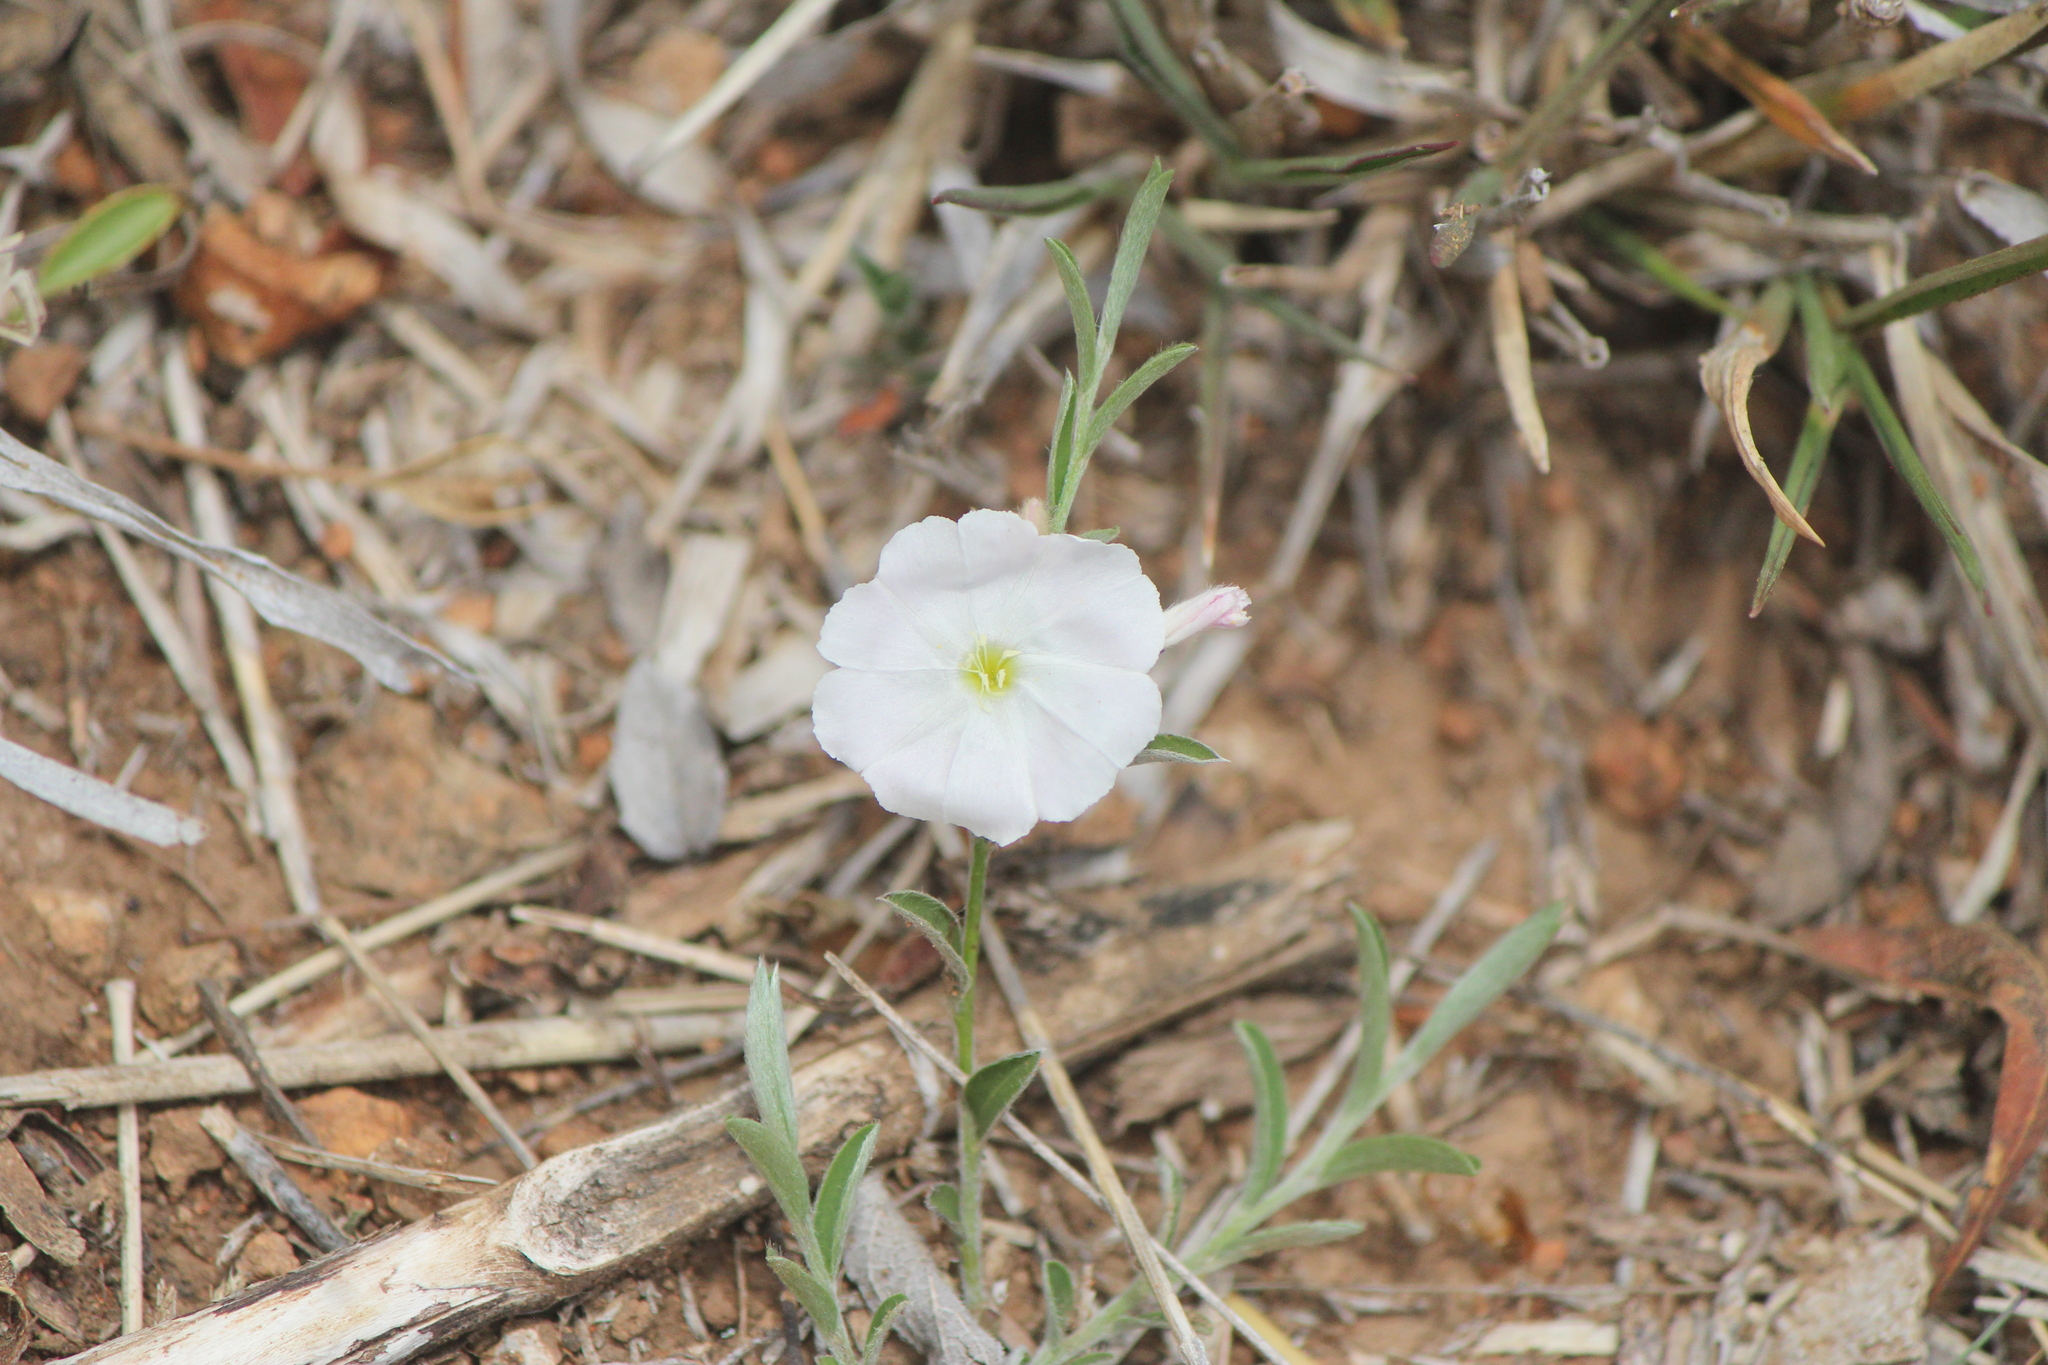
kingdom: Plantae
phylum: Tracheophyta
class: Magnoliopsida
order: Solanales
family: Convolvulaceae
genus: Evolvulus
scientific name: Evolvulus sericeus
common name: Blue dots
